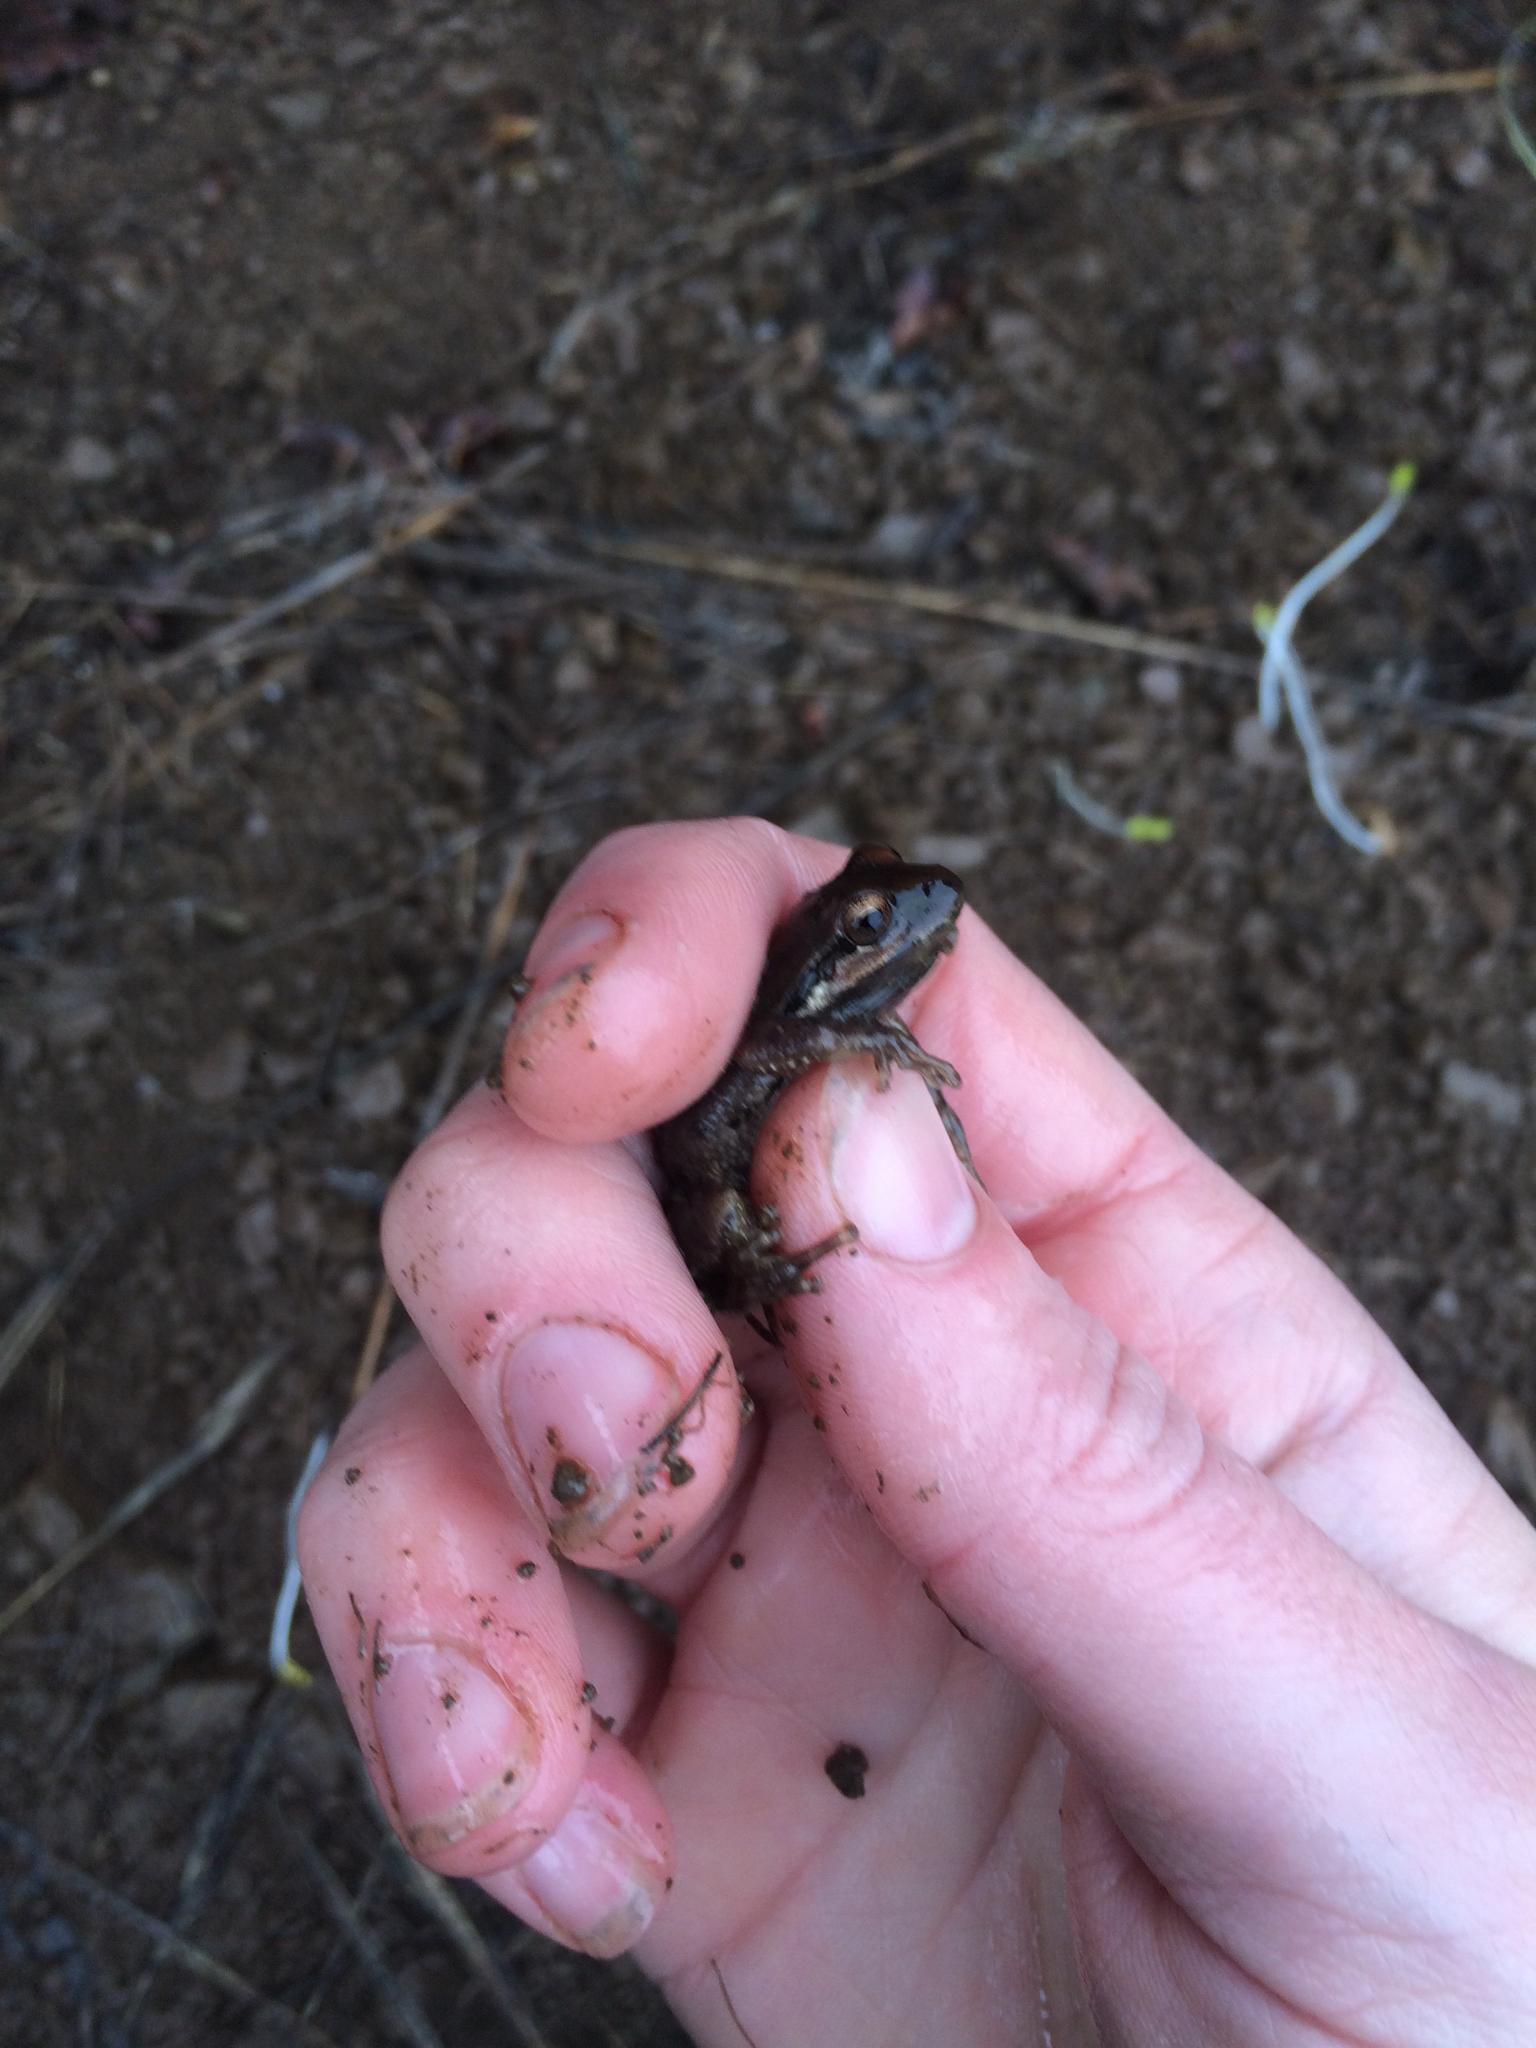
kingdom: Animalia
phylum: Chordata
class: Amphibia
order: Anura
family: Hylidae
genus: Pseudacris
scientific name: Pseudacris regilla
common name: Pacific chorus frog
